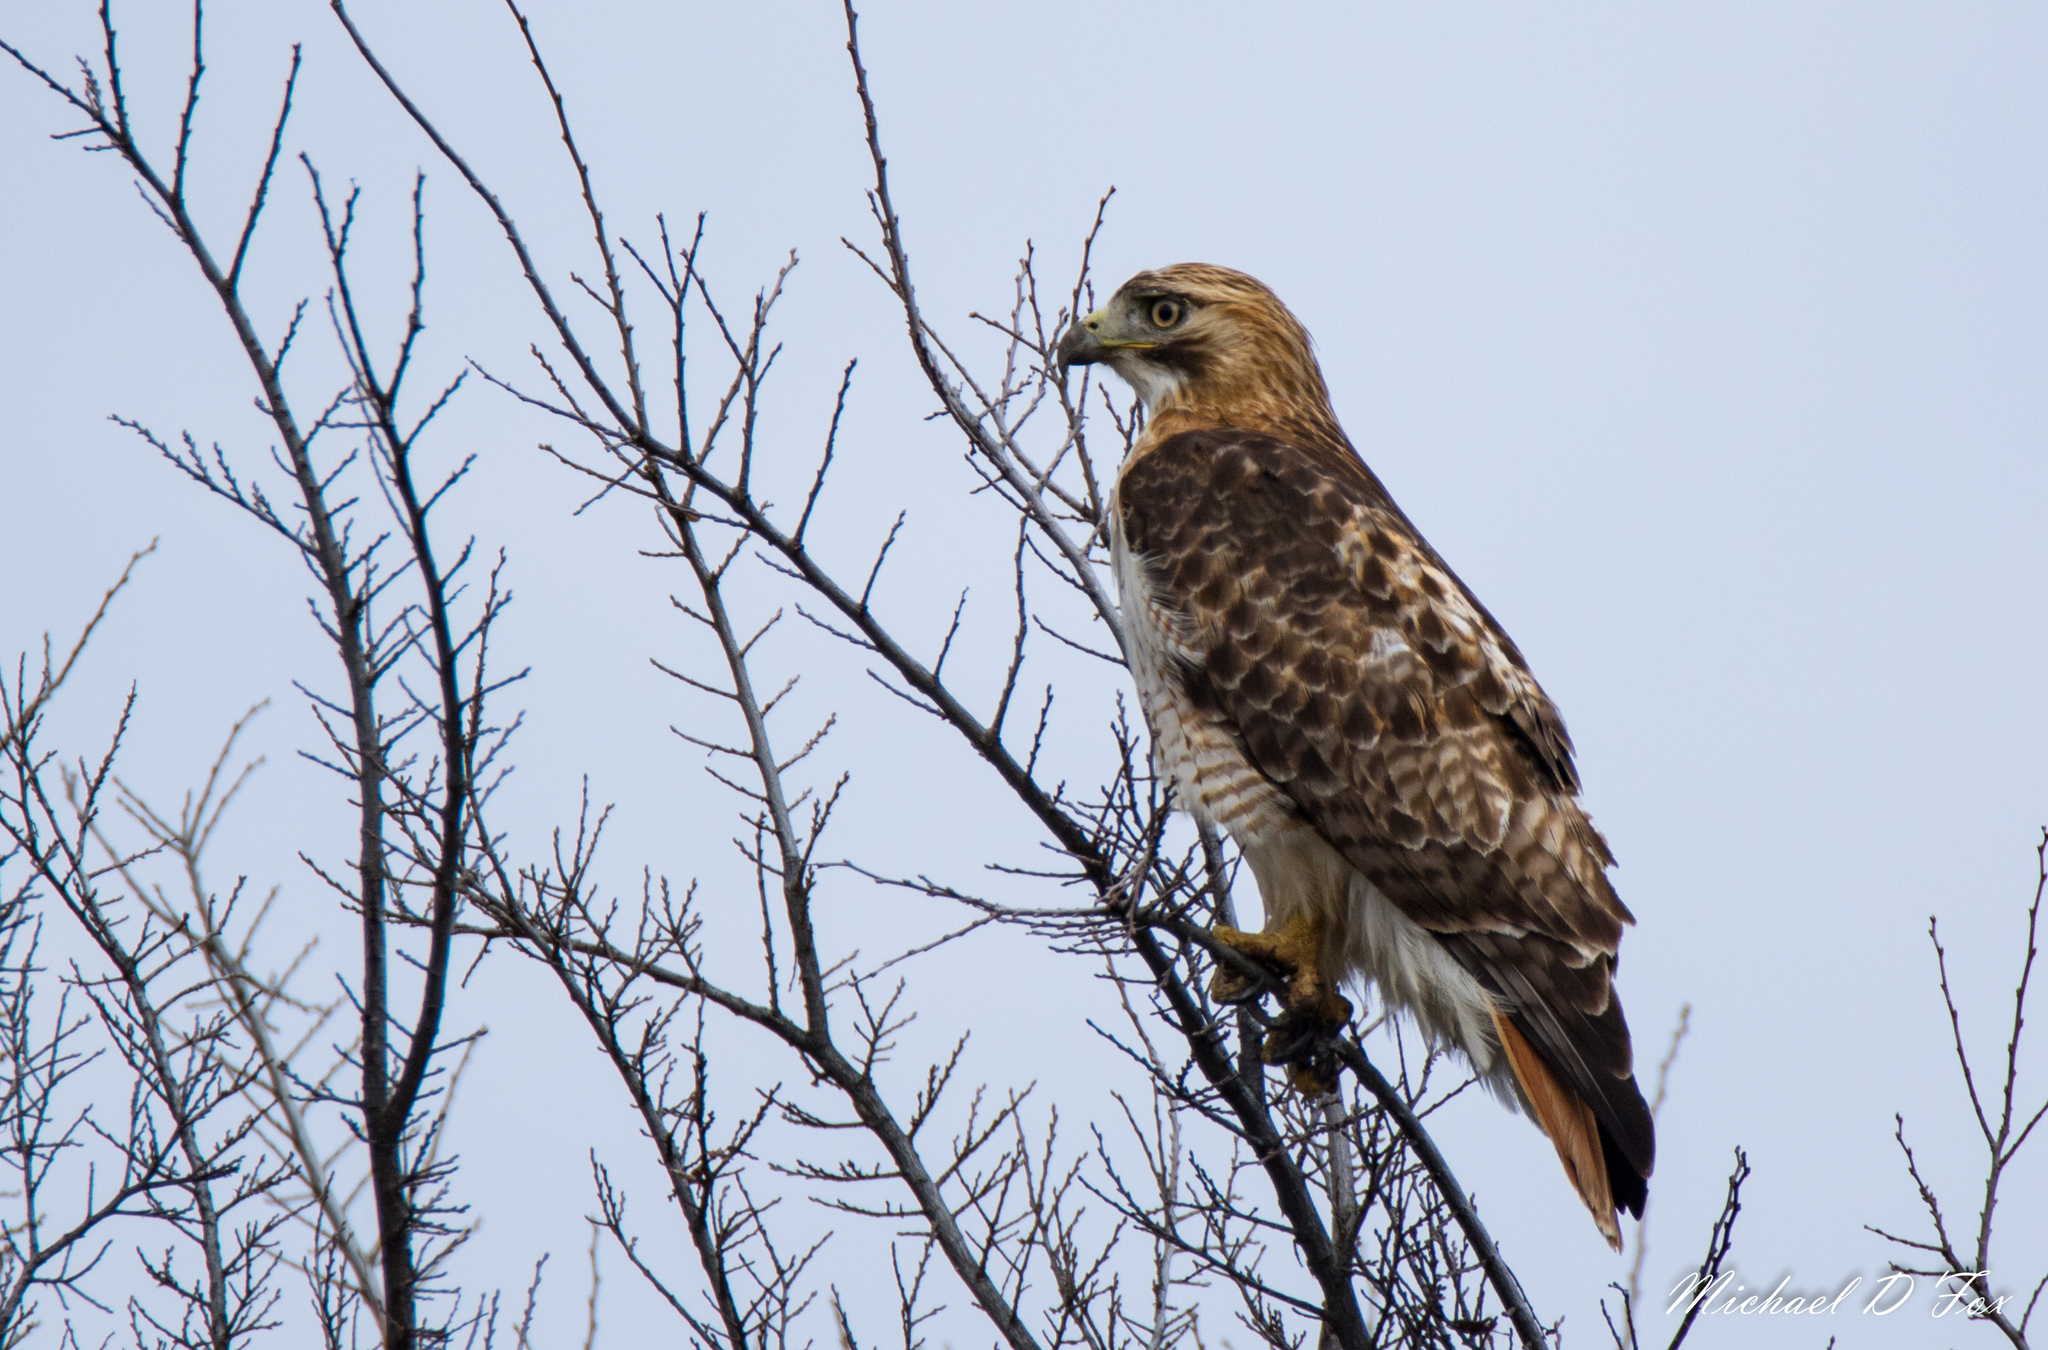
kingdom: Animalia
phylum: Chordata
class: Aves
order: Accipitriformes
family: Accipitridae
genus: Buteo
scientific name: Buteo jamaicensis
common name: Red-tailed hawk
